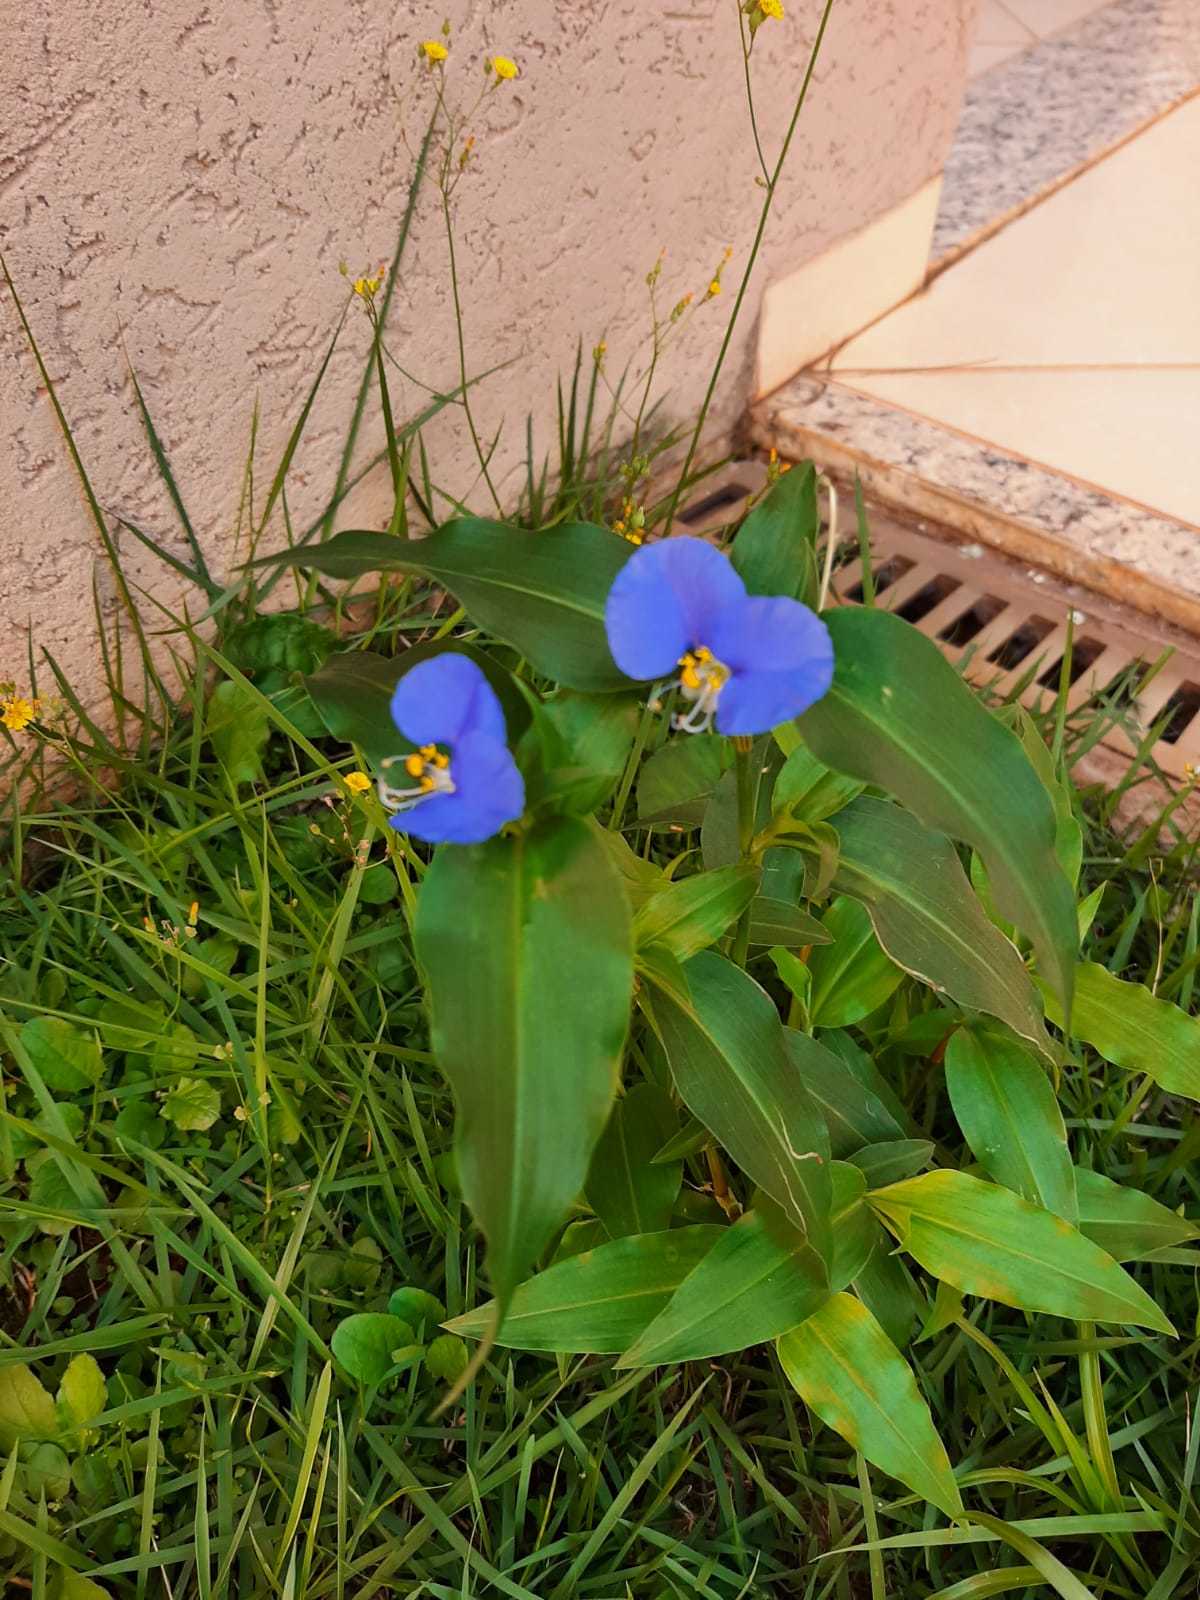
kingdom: Plantae
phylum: Tracheophyta
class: Liliopsida
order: Commelinales
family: Commelinaceae
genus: Commelina
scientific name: Commelina erecta
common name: Blousel blommetjie
